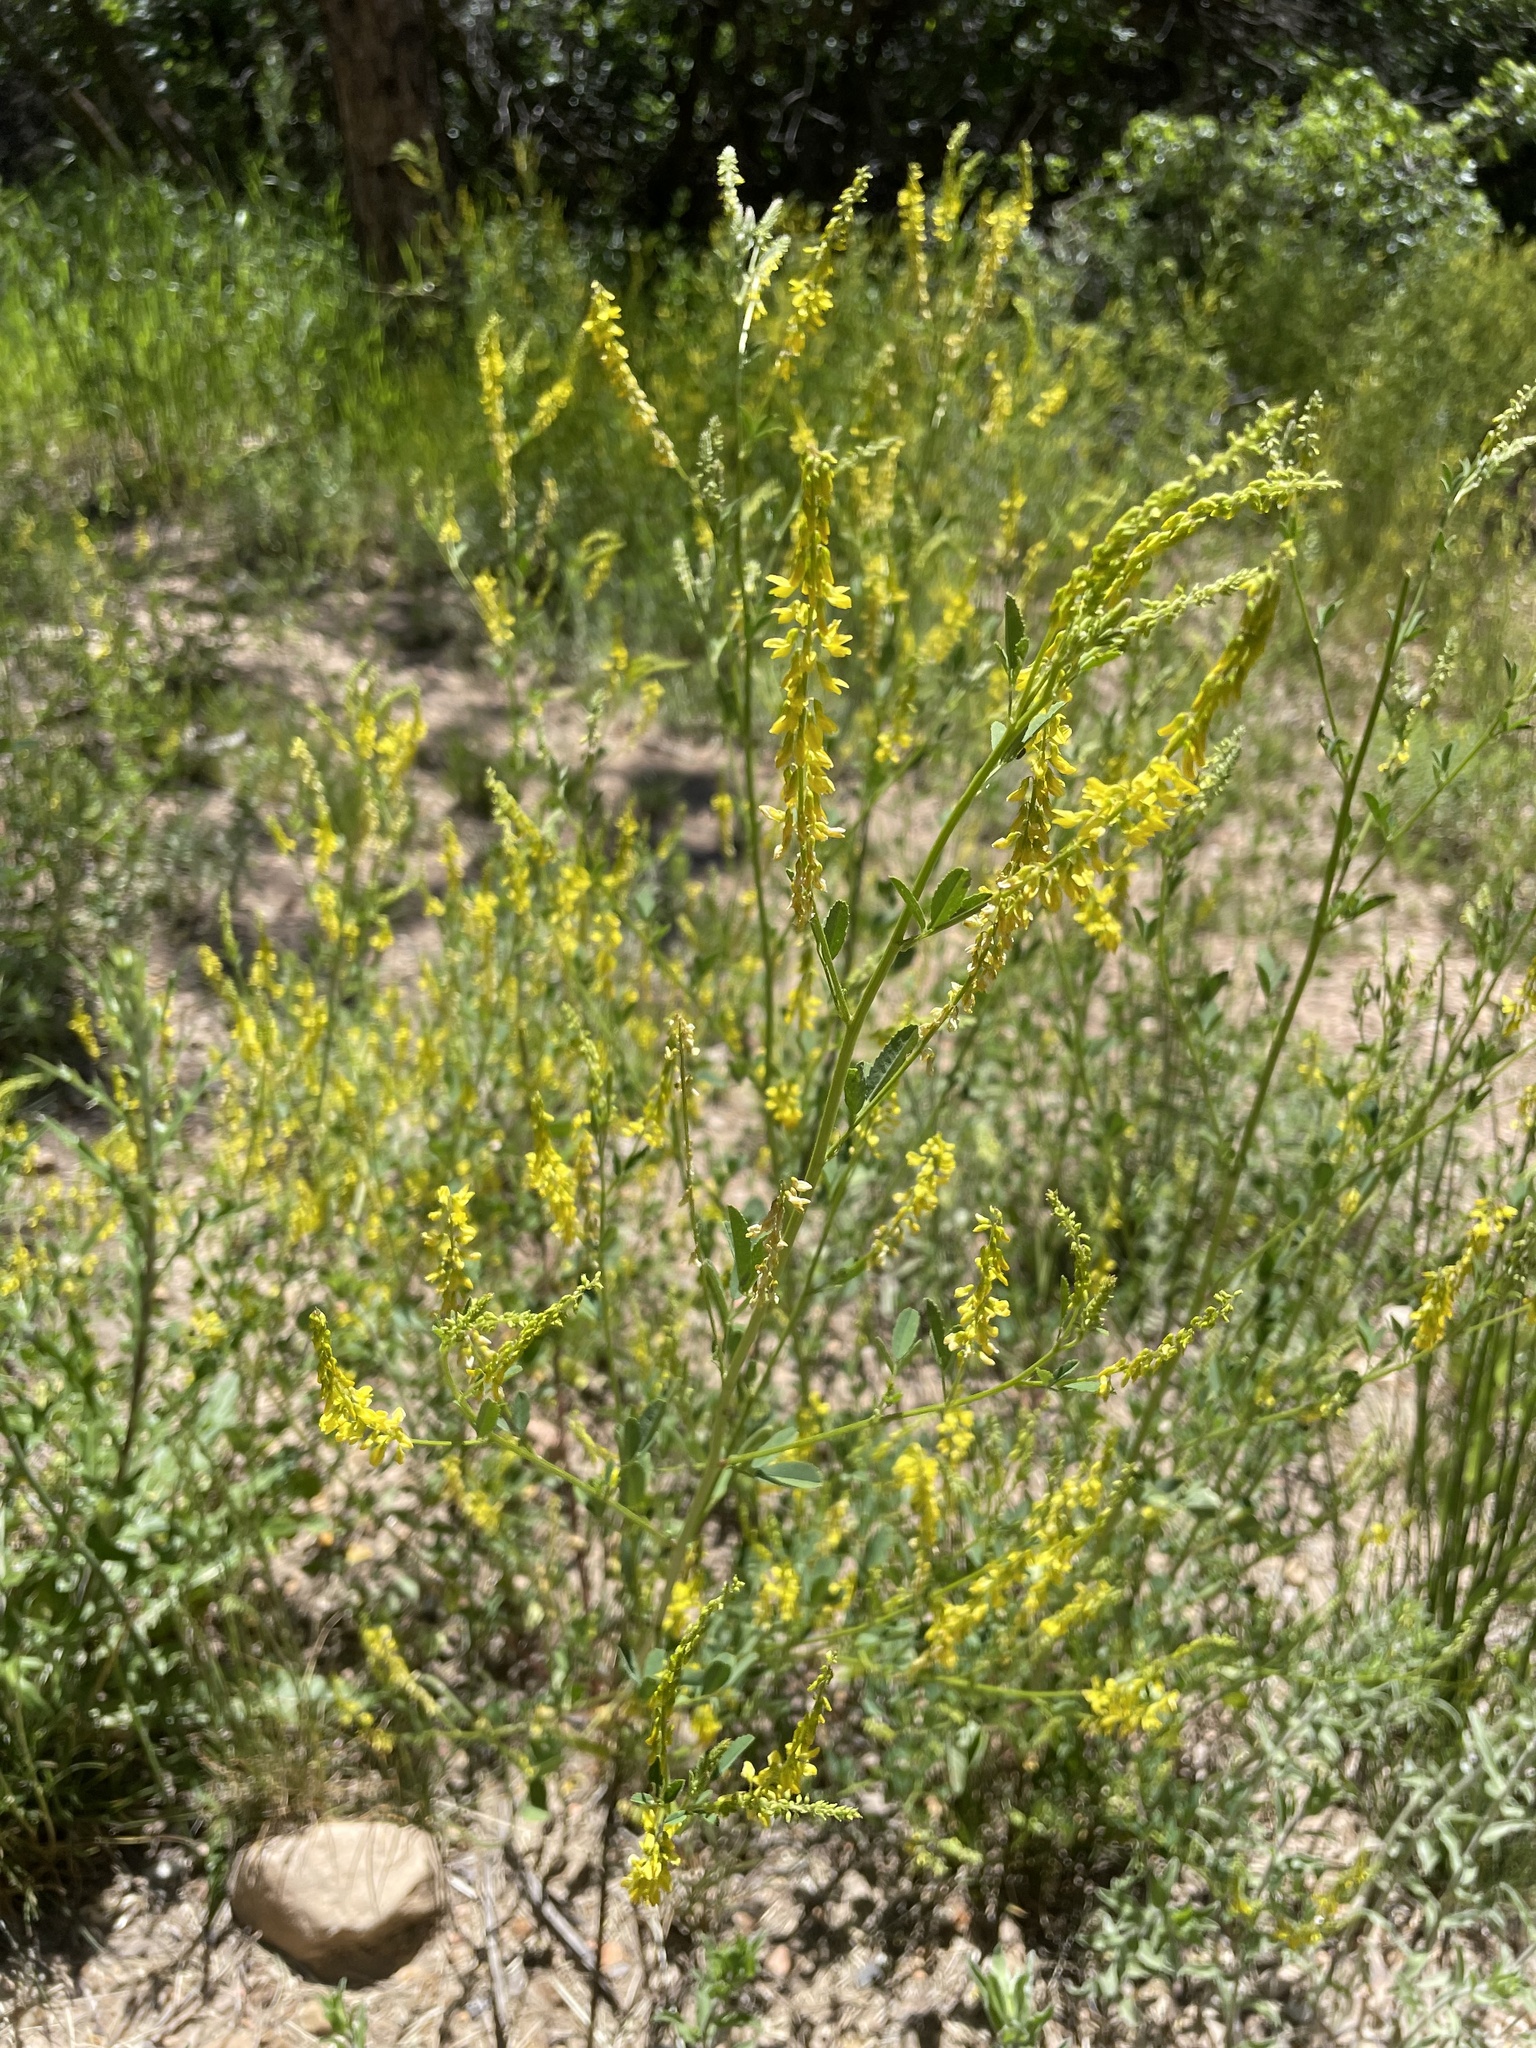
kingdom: Plantae
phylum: Tracheophyta
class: Magnoliopsida
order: Fabales
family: Fabaceae
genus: Melilotus
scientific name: Melilotus officinalis
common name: Sweetclover
